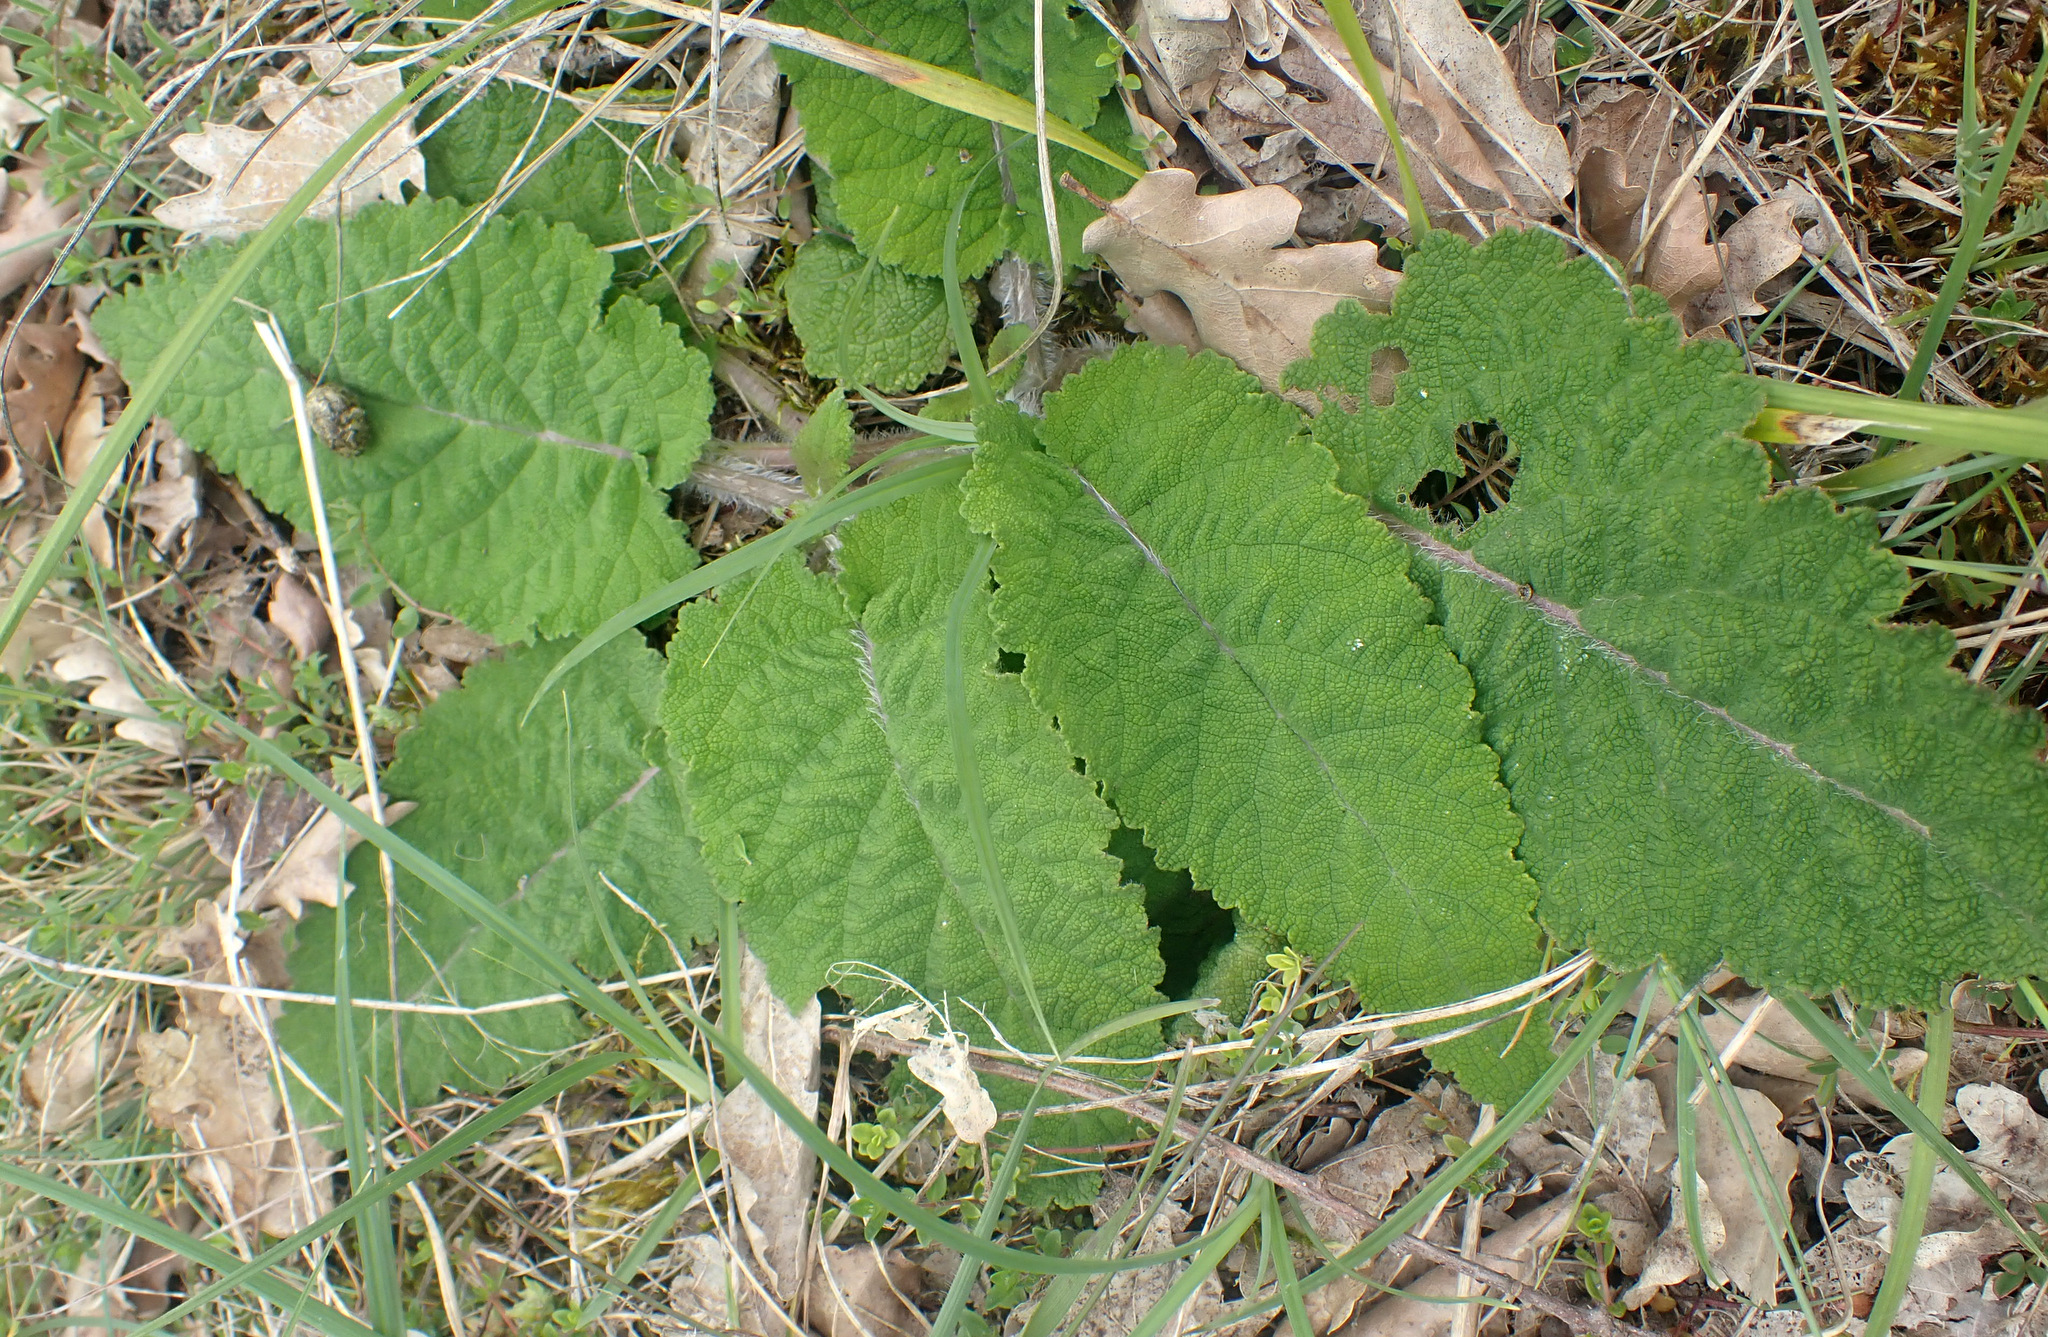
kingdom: Plantae
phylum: Tracheophyta
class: Magnoliopsida
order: Lamiales
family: Lamiaceae
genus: Salvia
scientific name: Salvia pratensis
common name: Meadow sage
